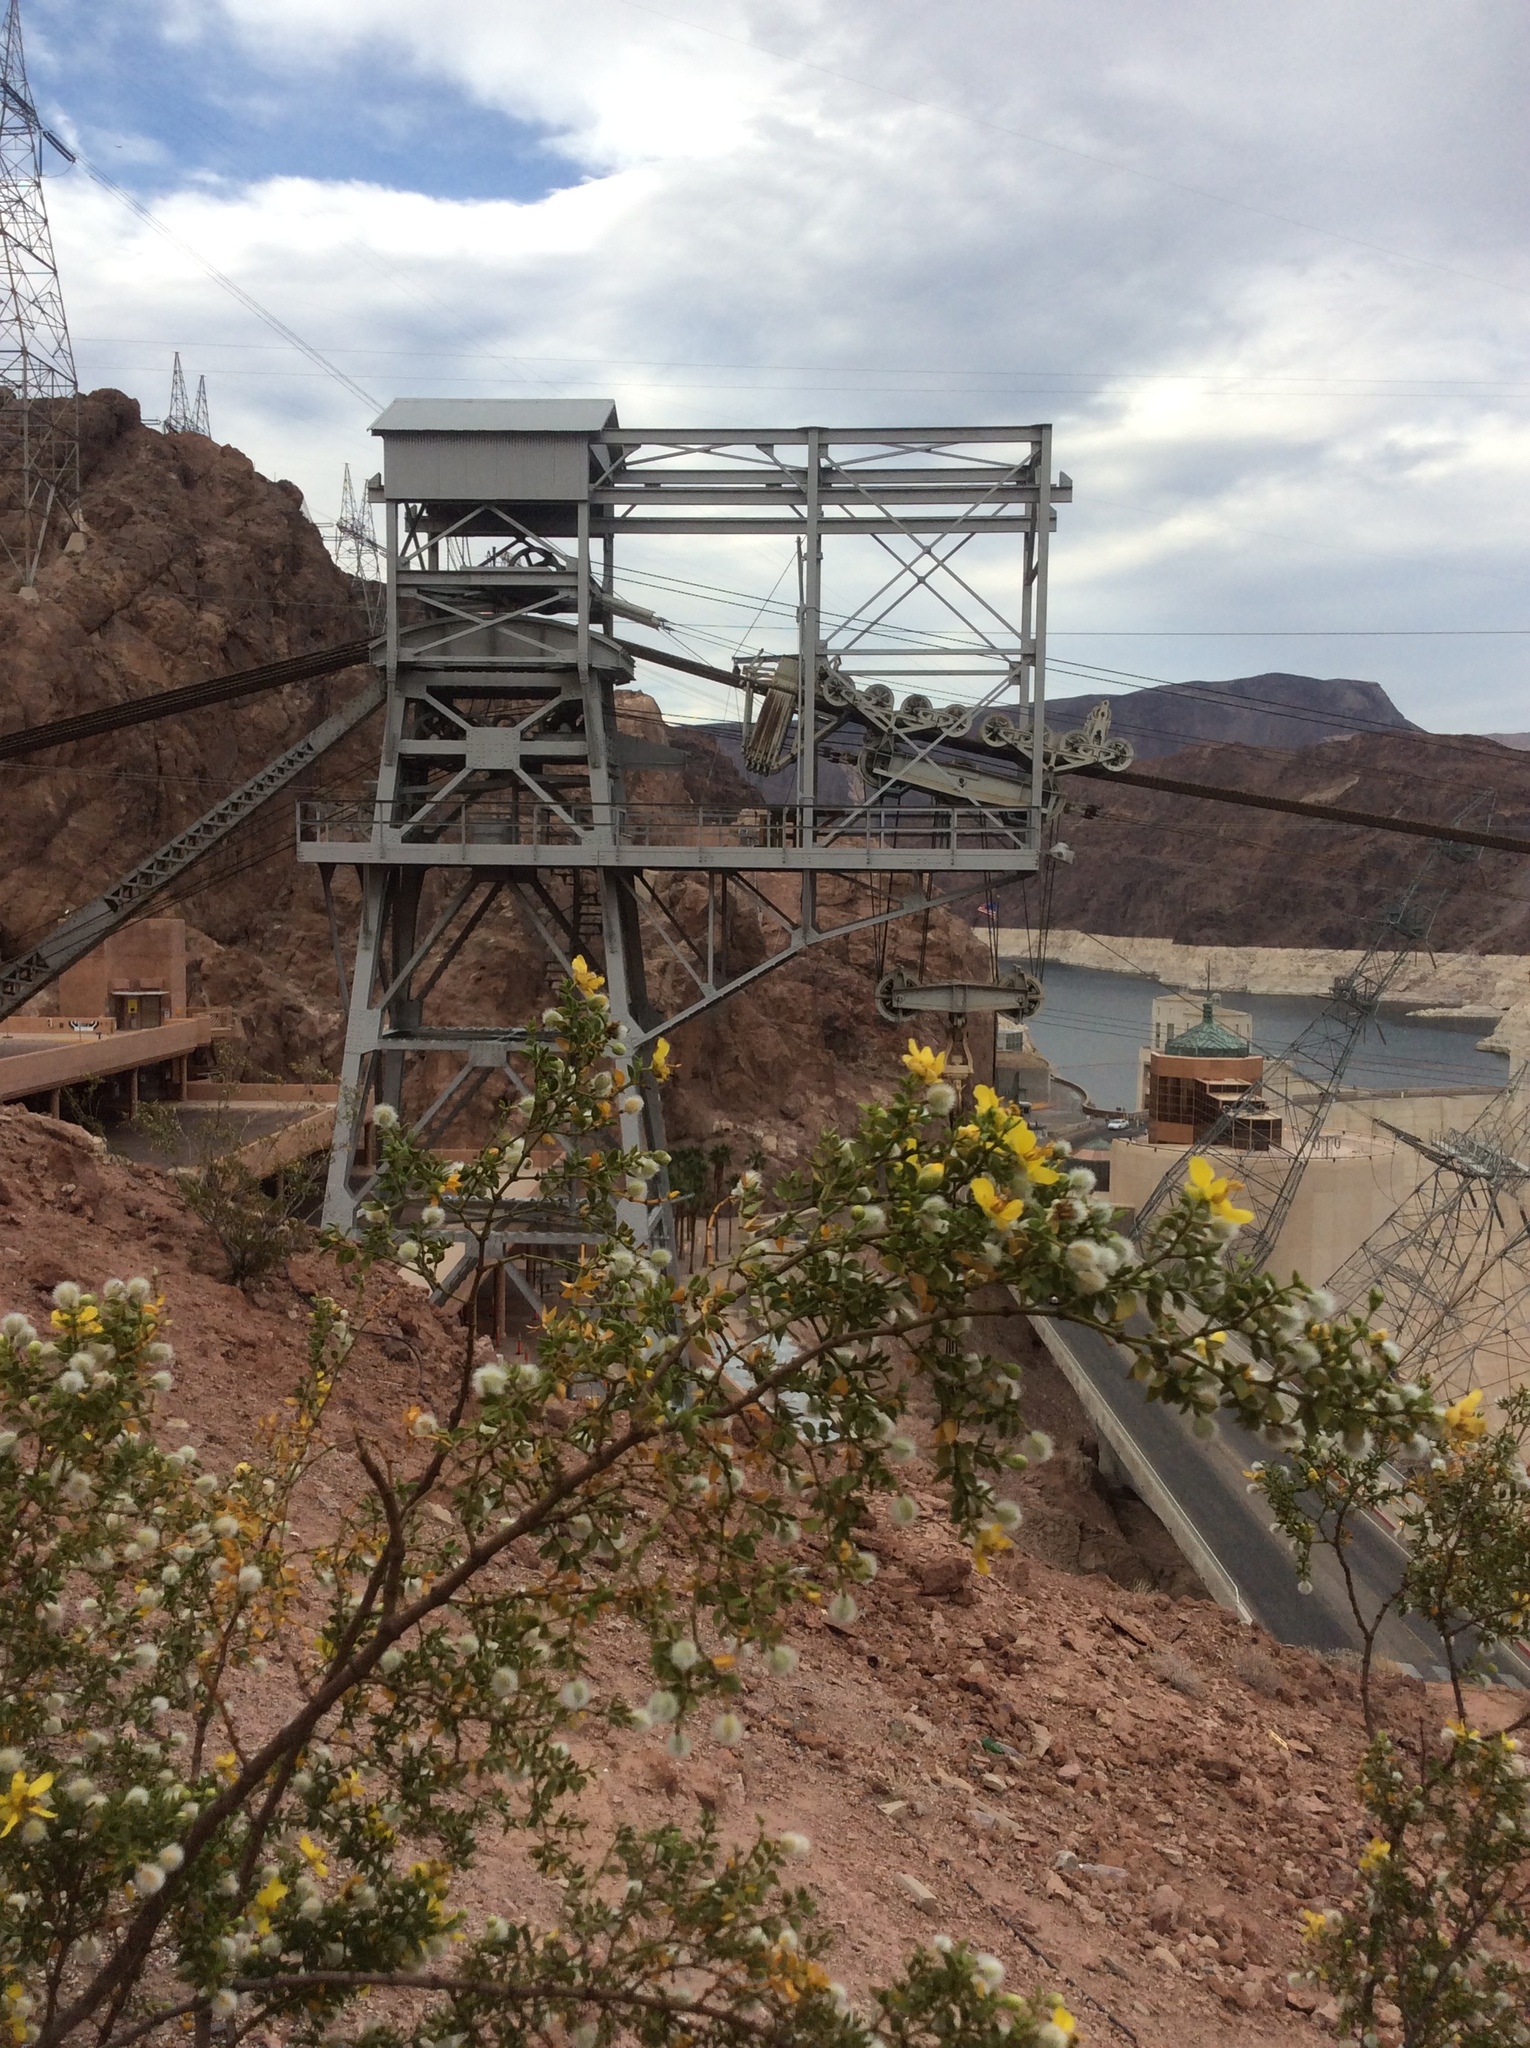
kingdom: Plantae
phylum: Tracheophyta
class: Magnoliopsida
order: Zygophyllales
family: Zygophyllaceae
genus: Larrea
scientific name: Larrea tridentata
